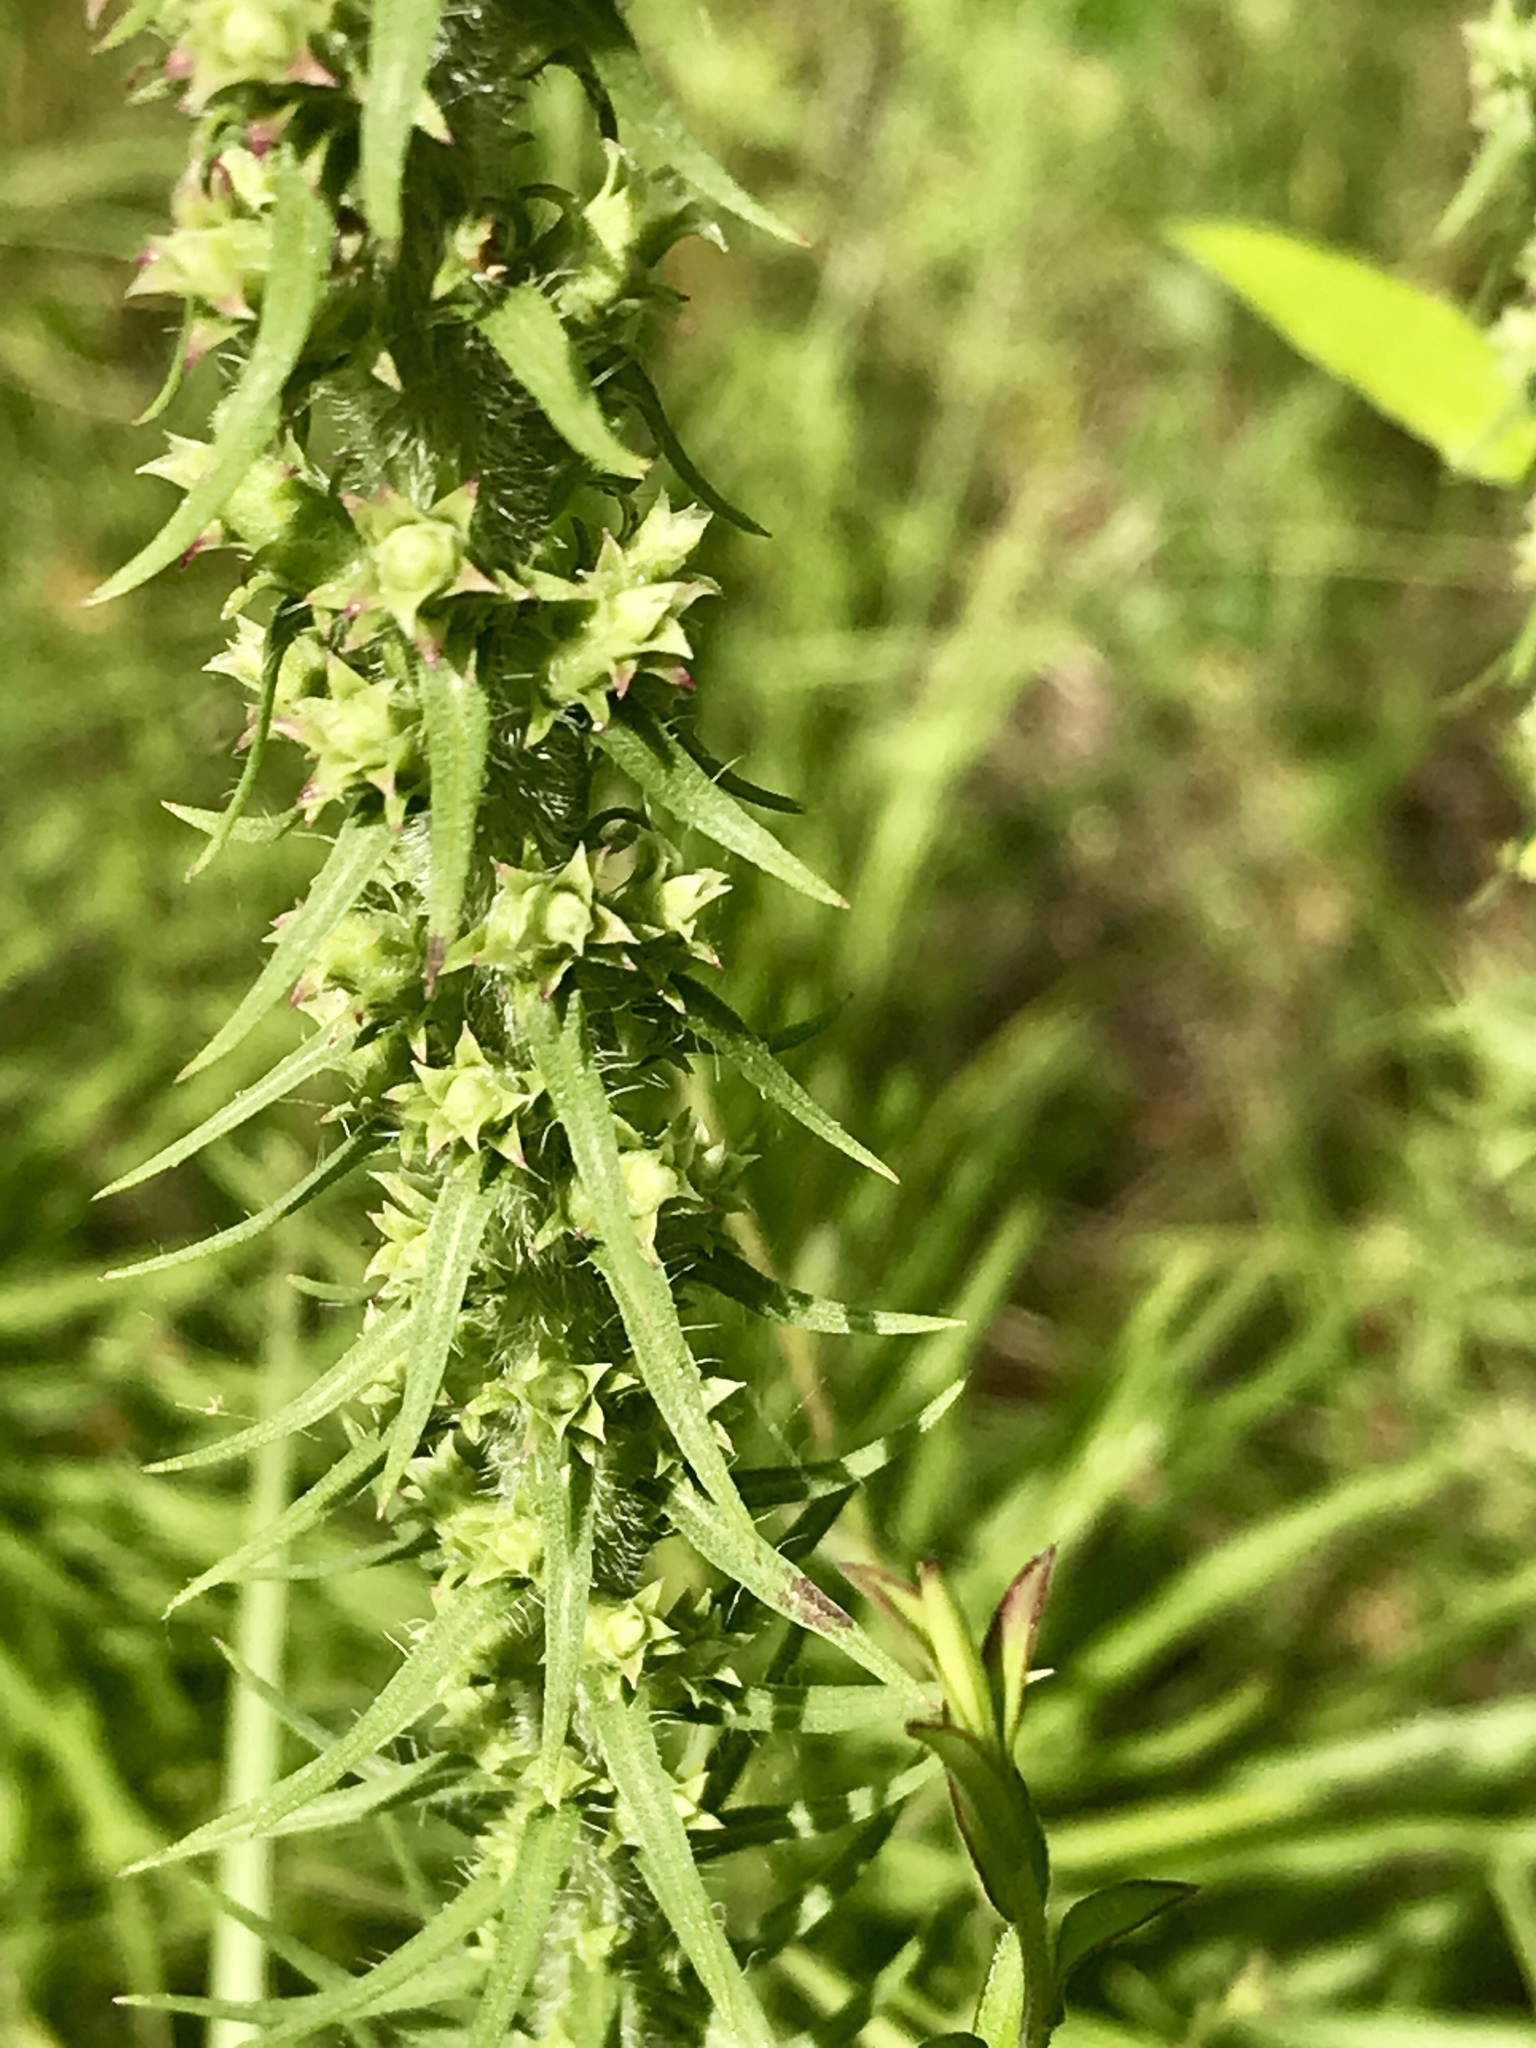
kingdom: Plantae
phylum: Tracheophyta
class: Magnoliopsida
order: Asterales
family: Asteraceae
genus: Liatris
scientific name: Liatris pycnostachya
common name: Cattail gayfeather
